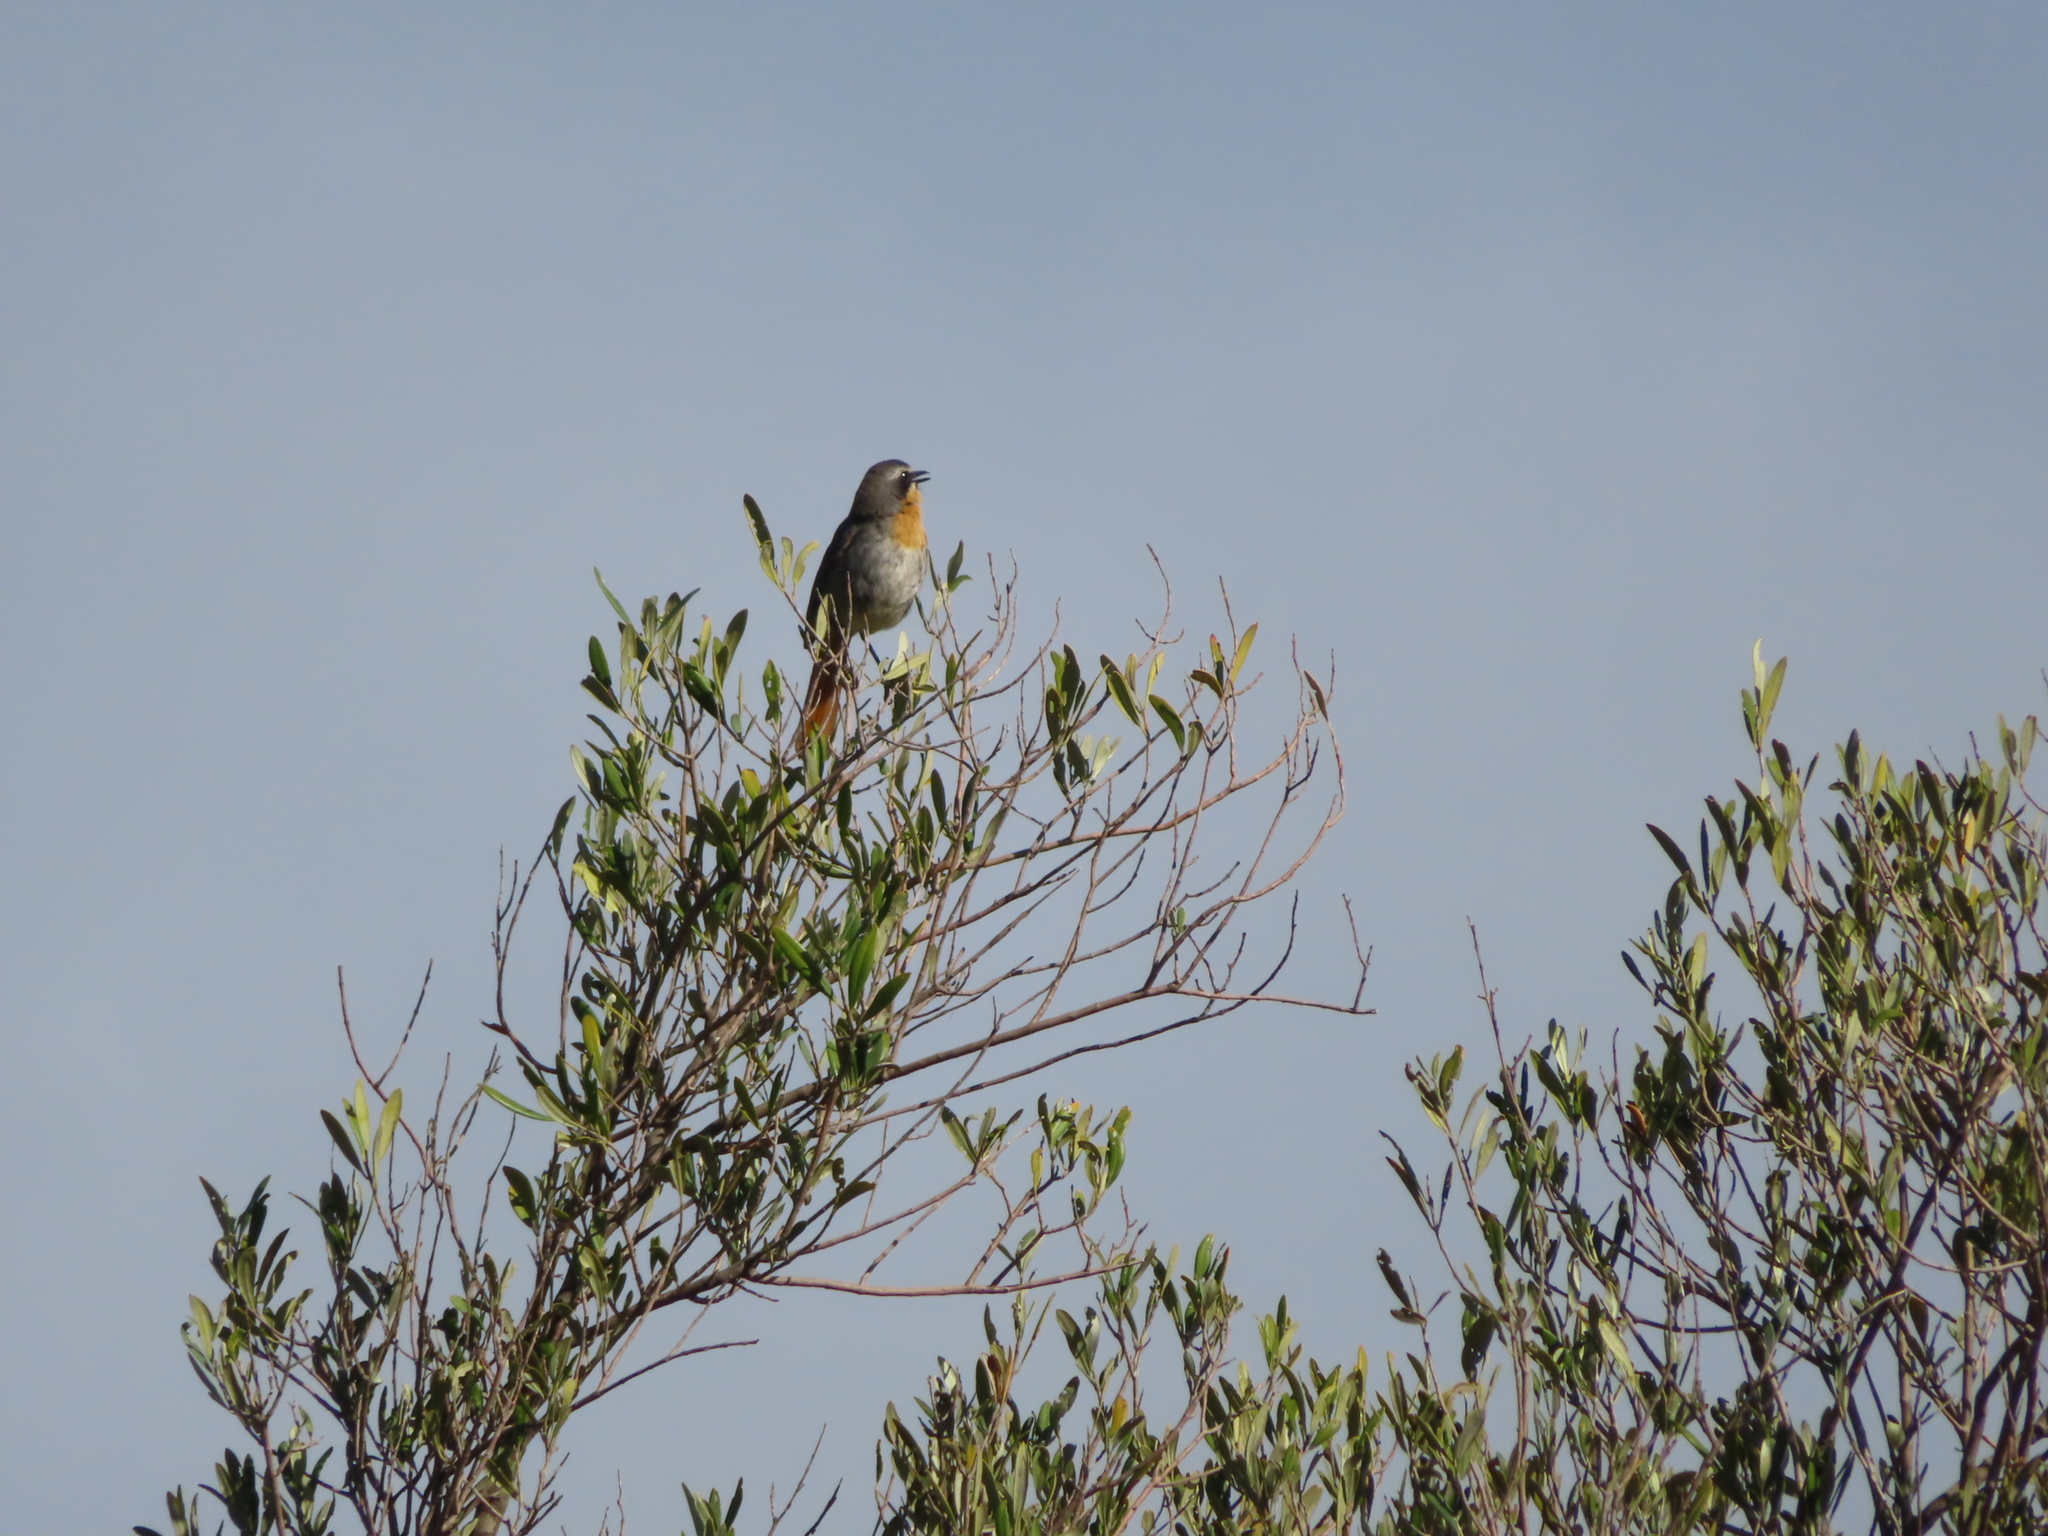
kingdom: Animalia
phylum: Chordata
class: Aves
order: Passeriformes
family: Muscicapidae
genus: Cossypha
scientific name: Cossypha caffra
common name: Cape robin-chat
